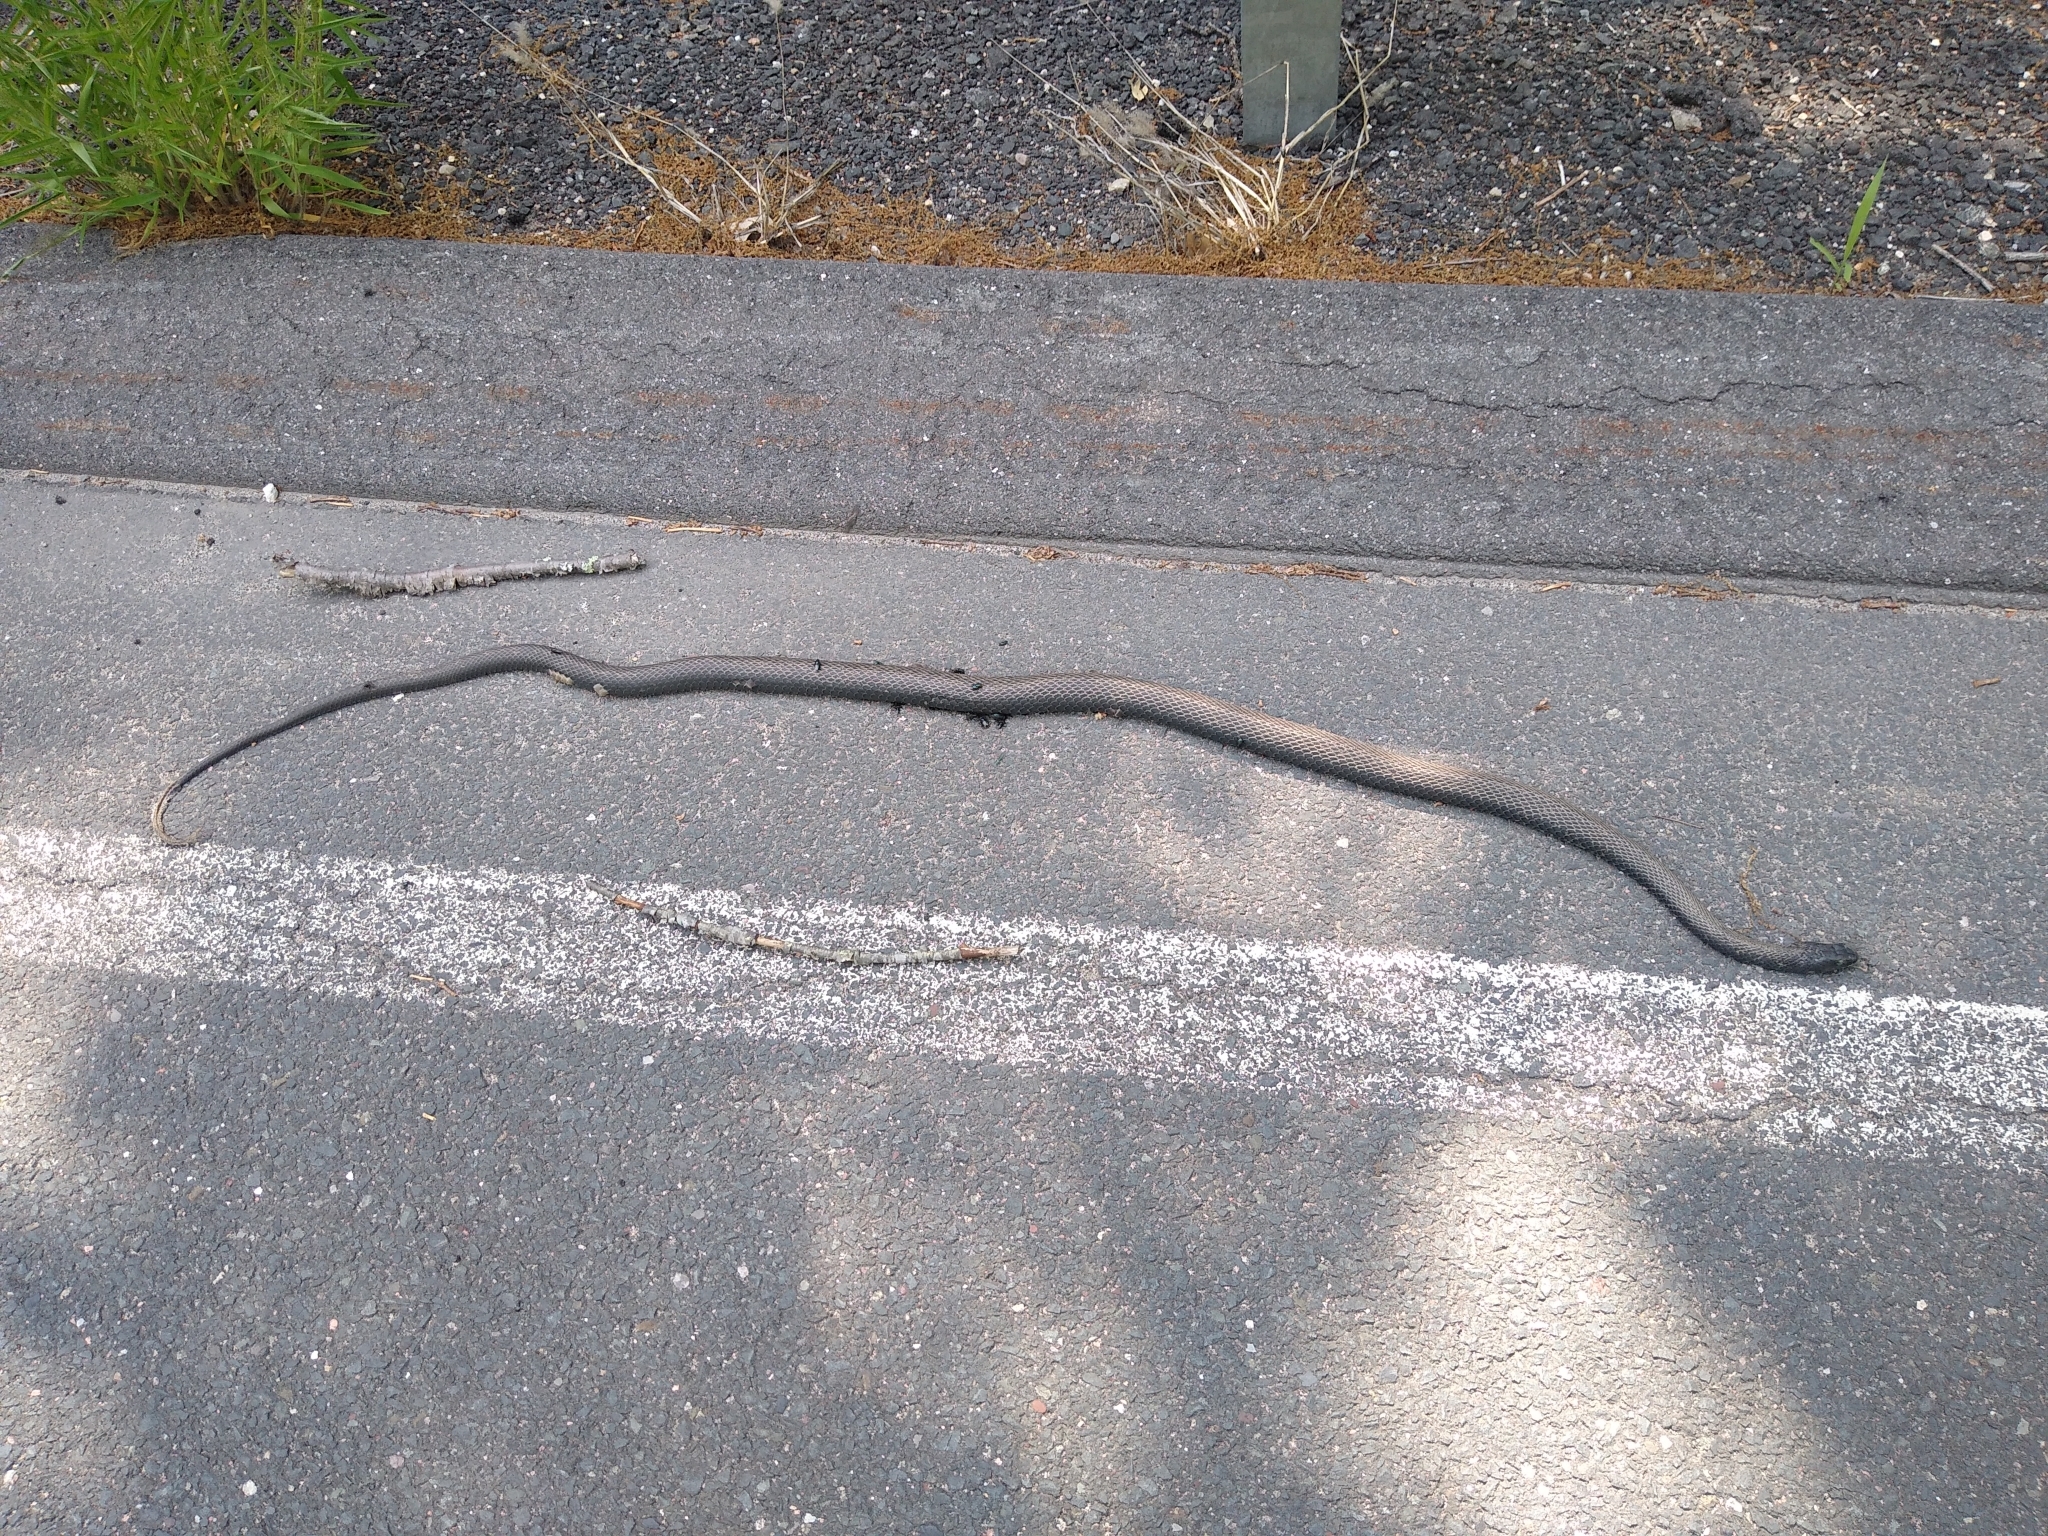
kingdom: Animalia
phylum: Chordata
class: Squamata
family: Colubridae
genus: Coluber
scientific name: Coluber constrictor
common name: Eastern racer
